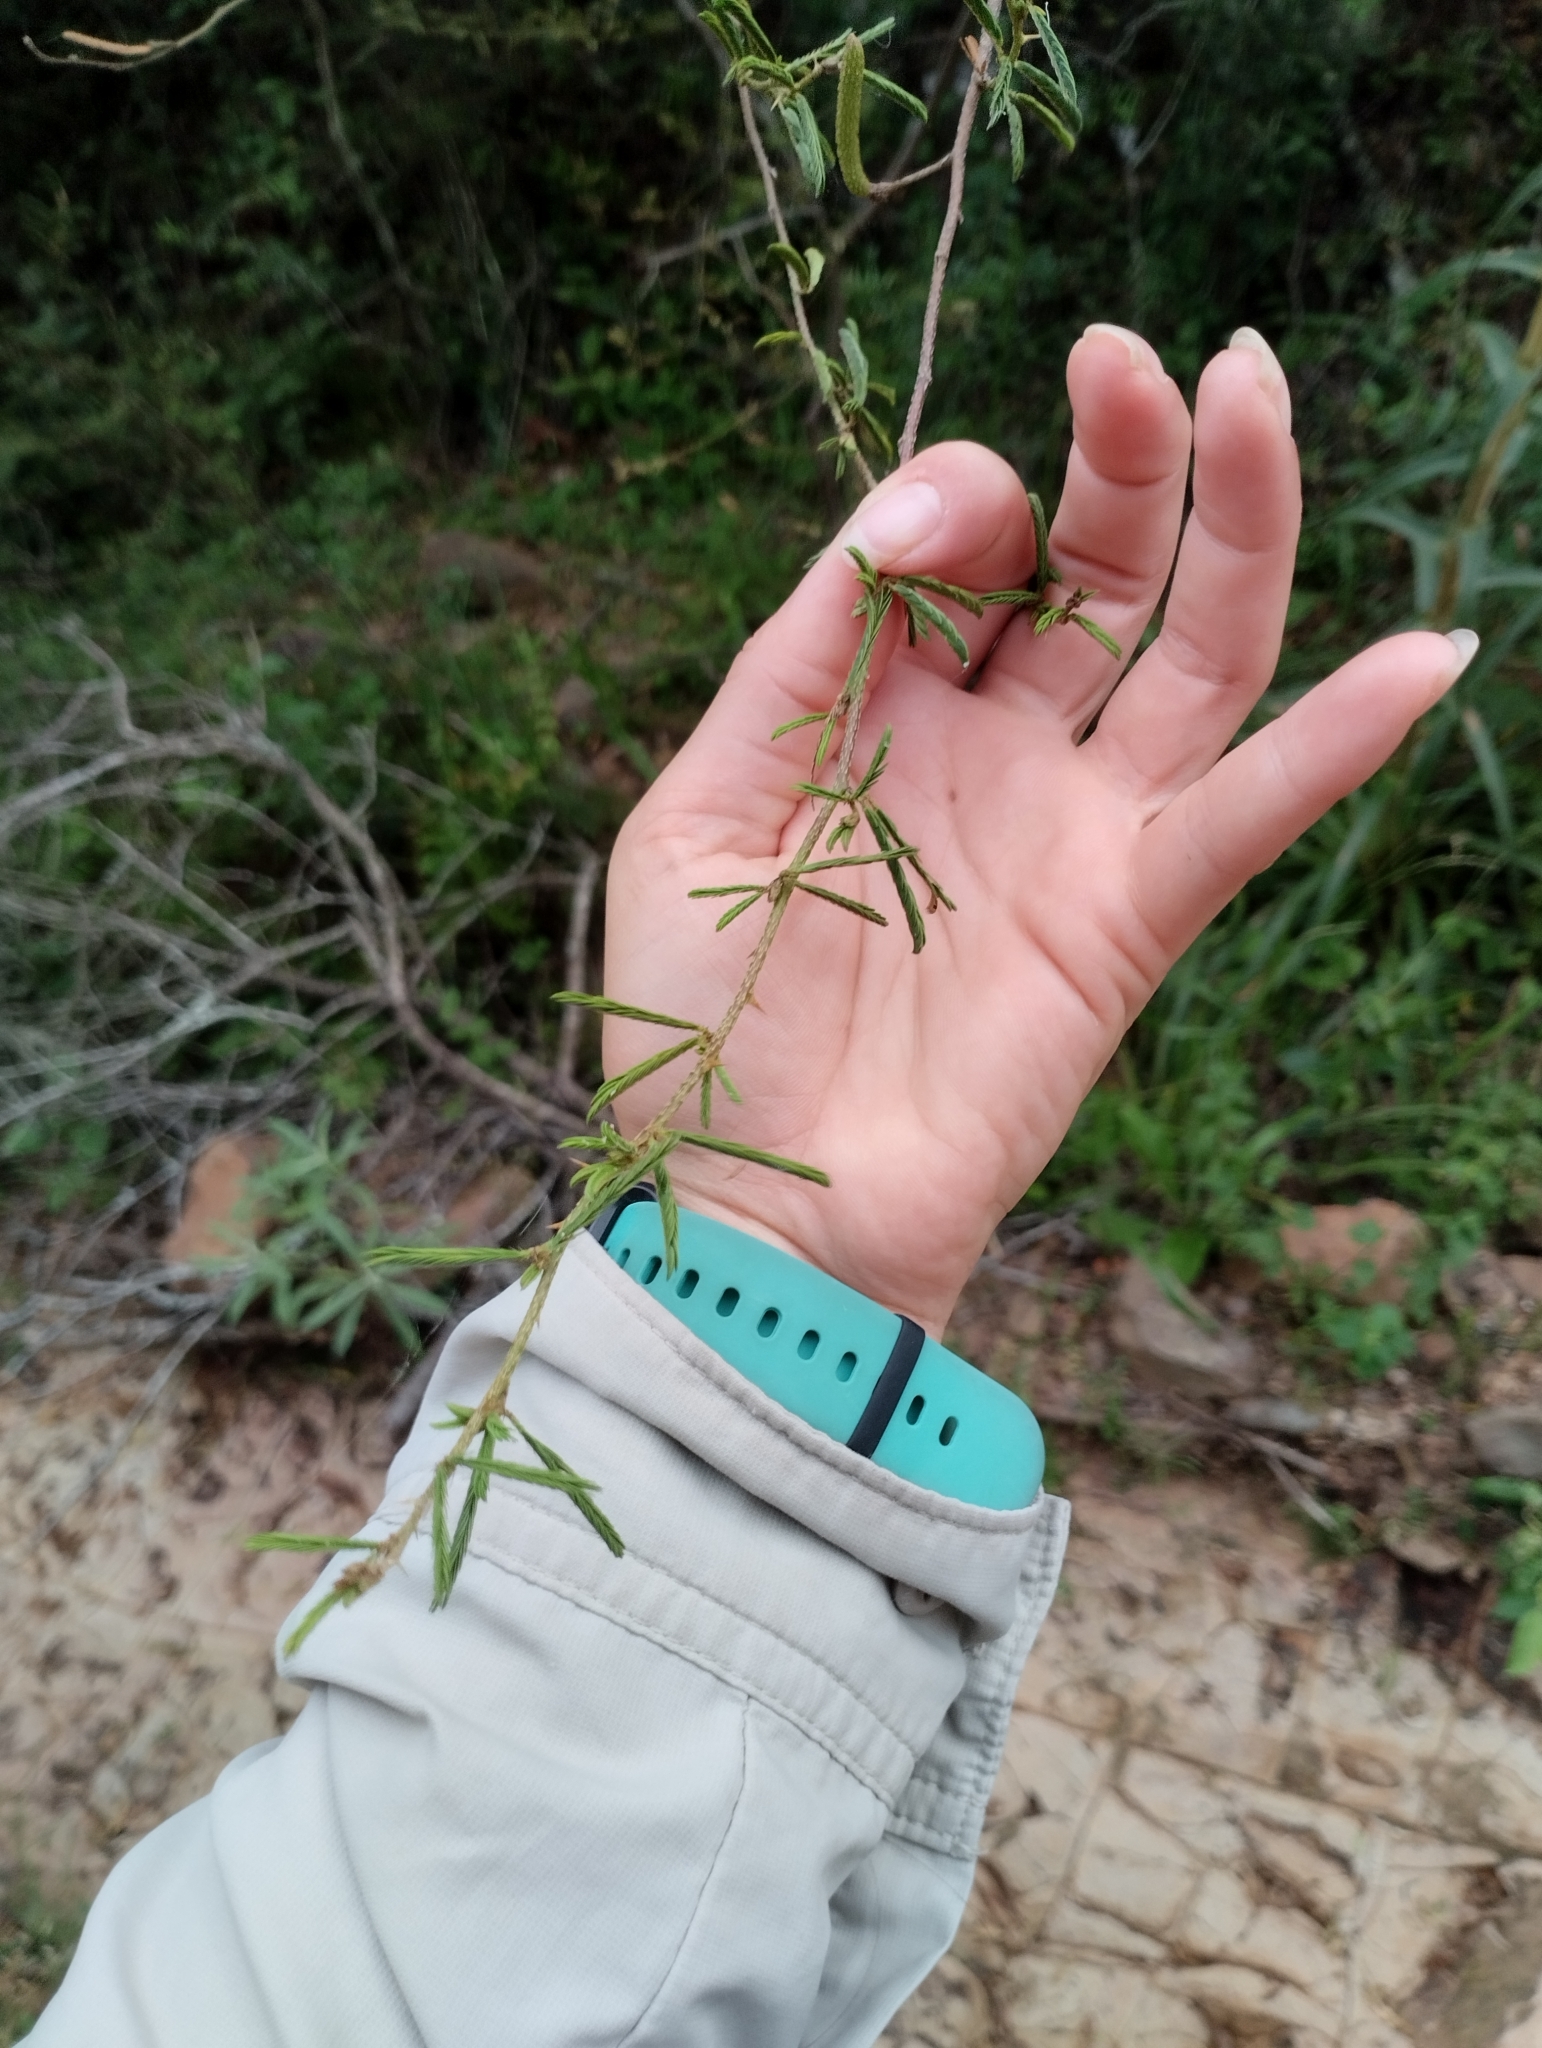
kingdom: Plantae
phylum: Tracheophyta
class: Magnoliopsida
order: Fabales
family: Fabaceae
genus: Mimosa
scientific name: Mimosa sprengelii
